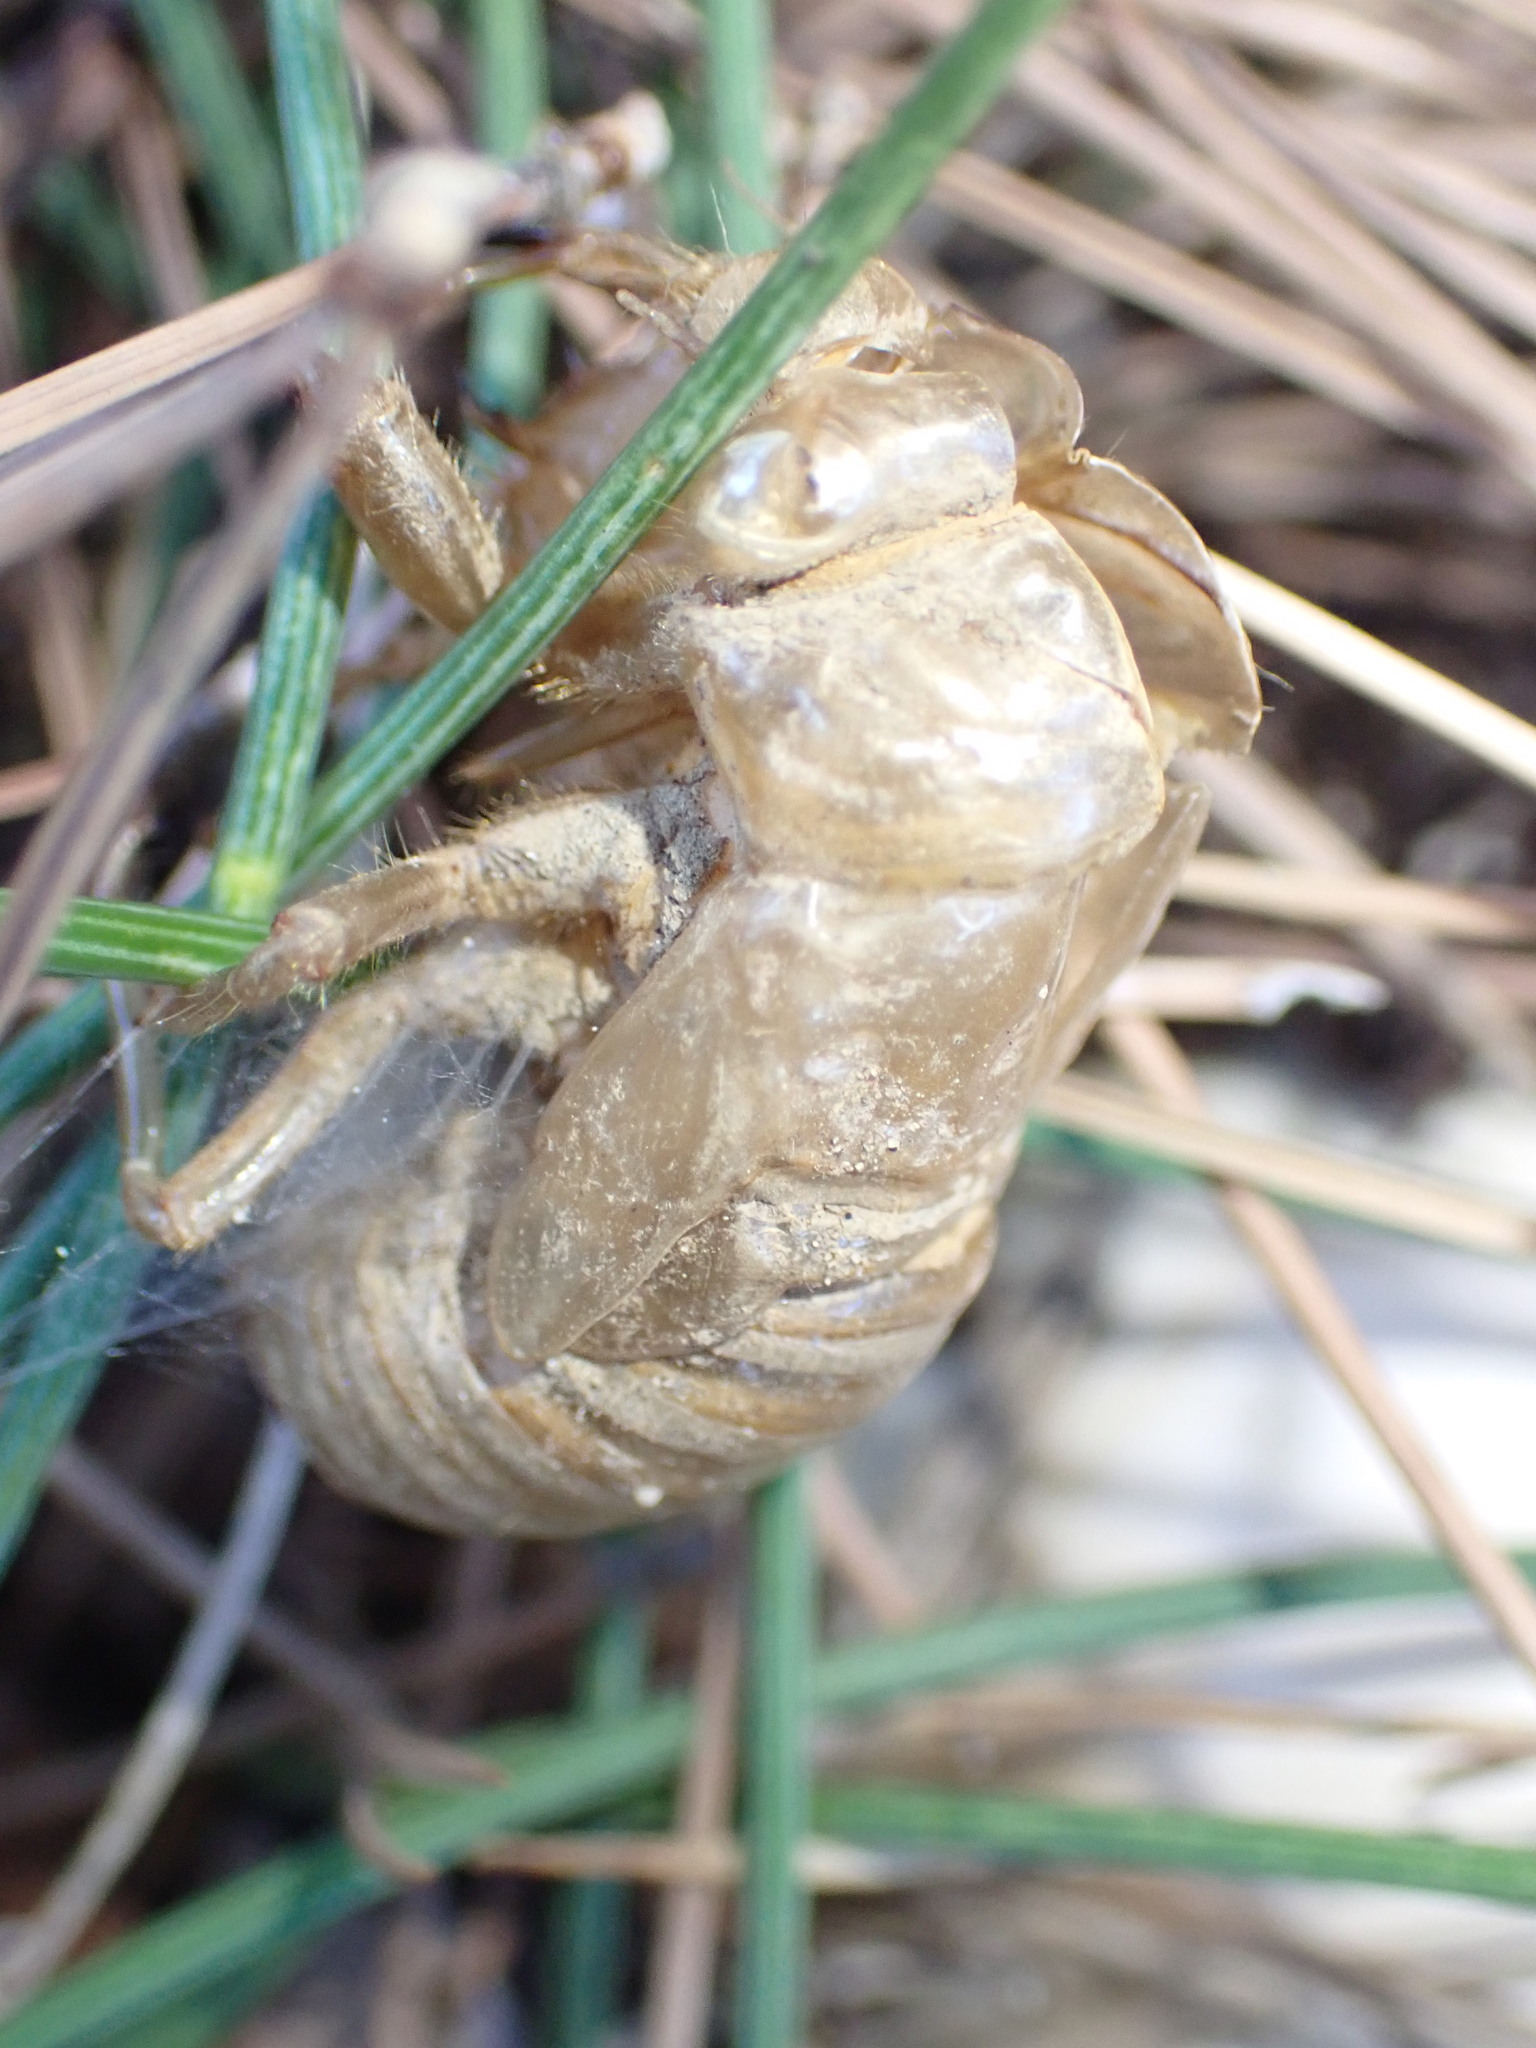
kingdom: Animalia
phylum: Arthropoda
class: Insecta
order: Hemiptera
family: Cicadidae
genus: Lyristes
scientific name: Lyristes plebejus
